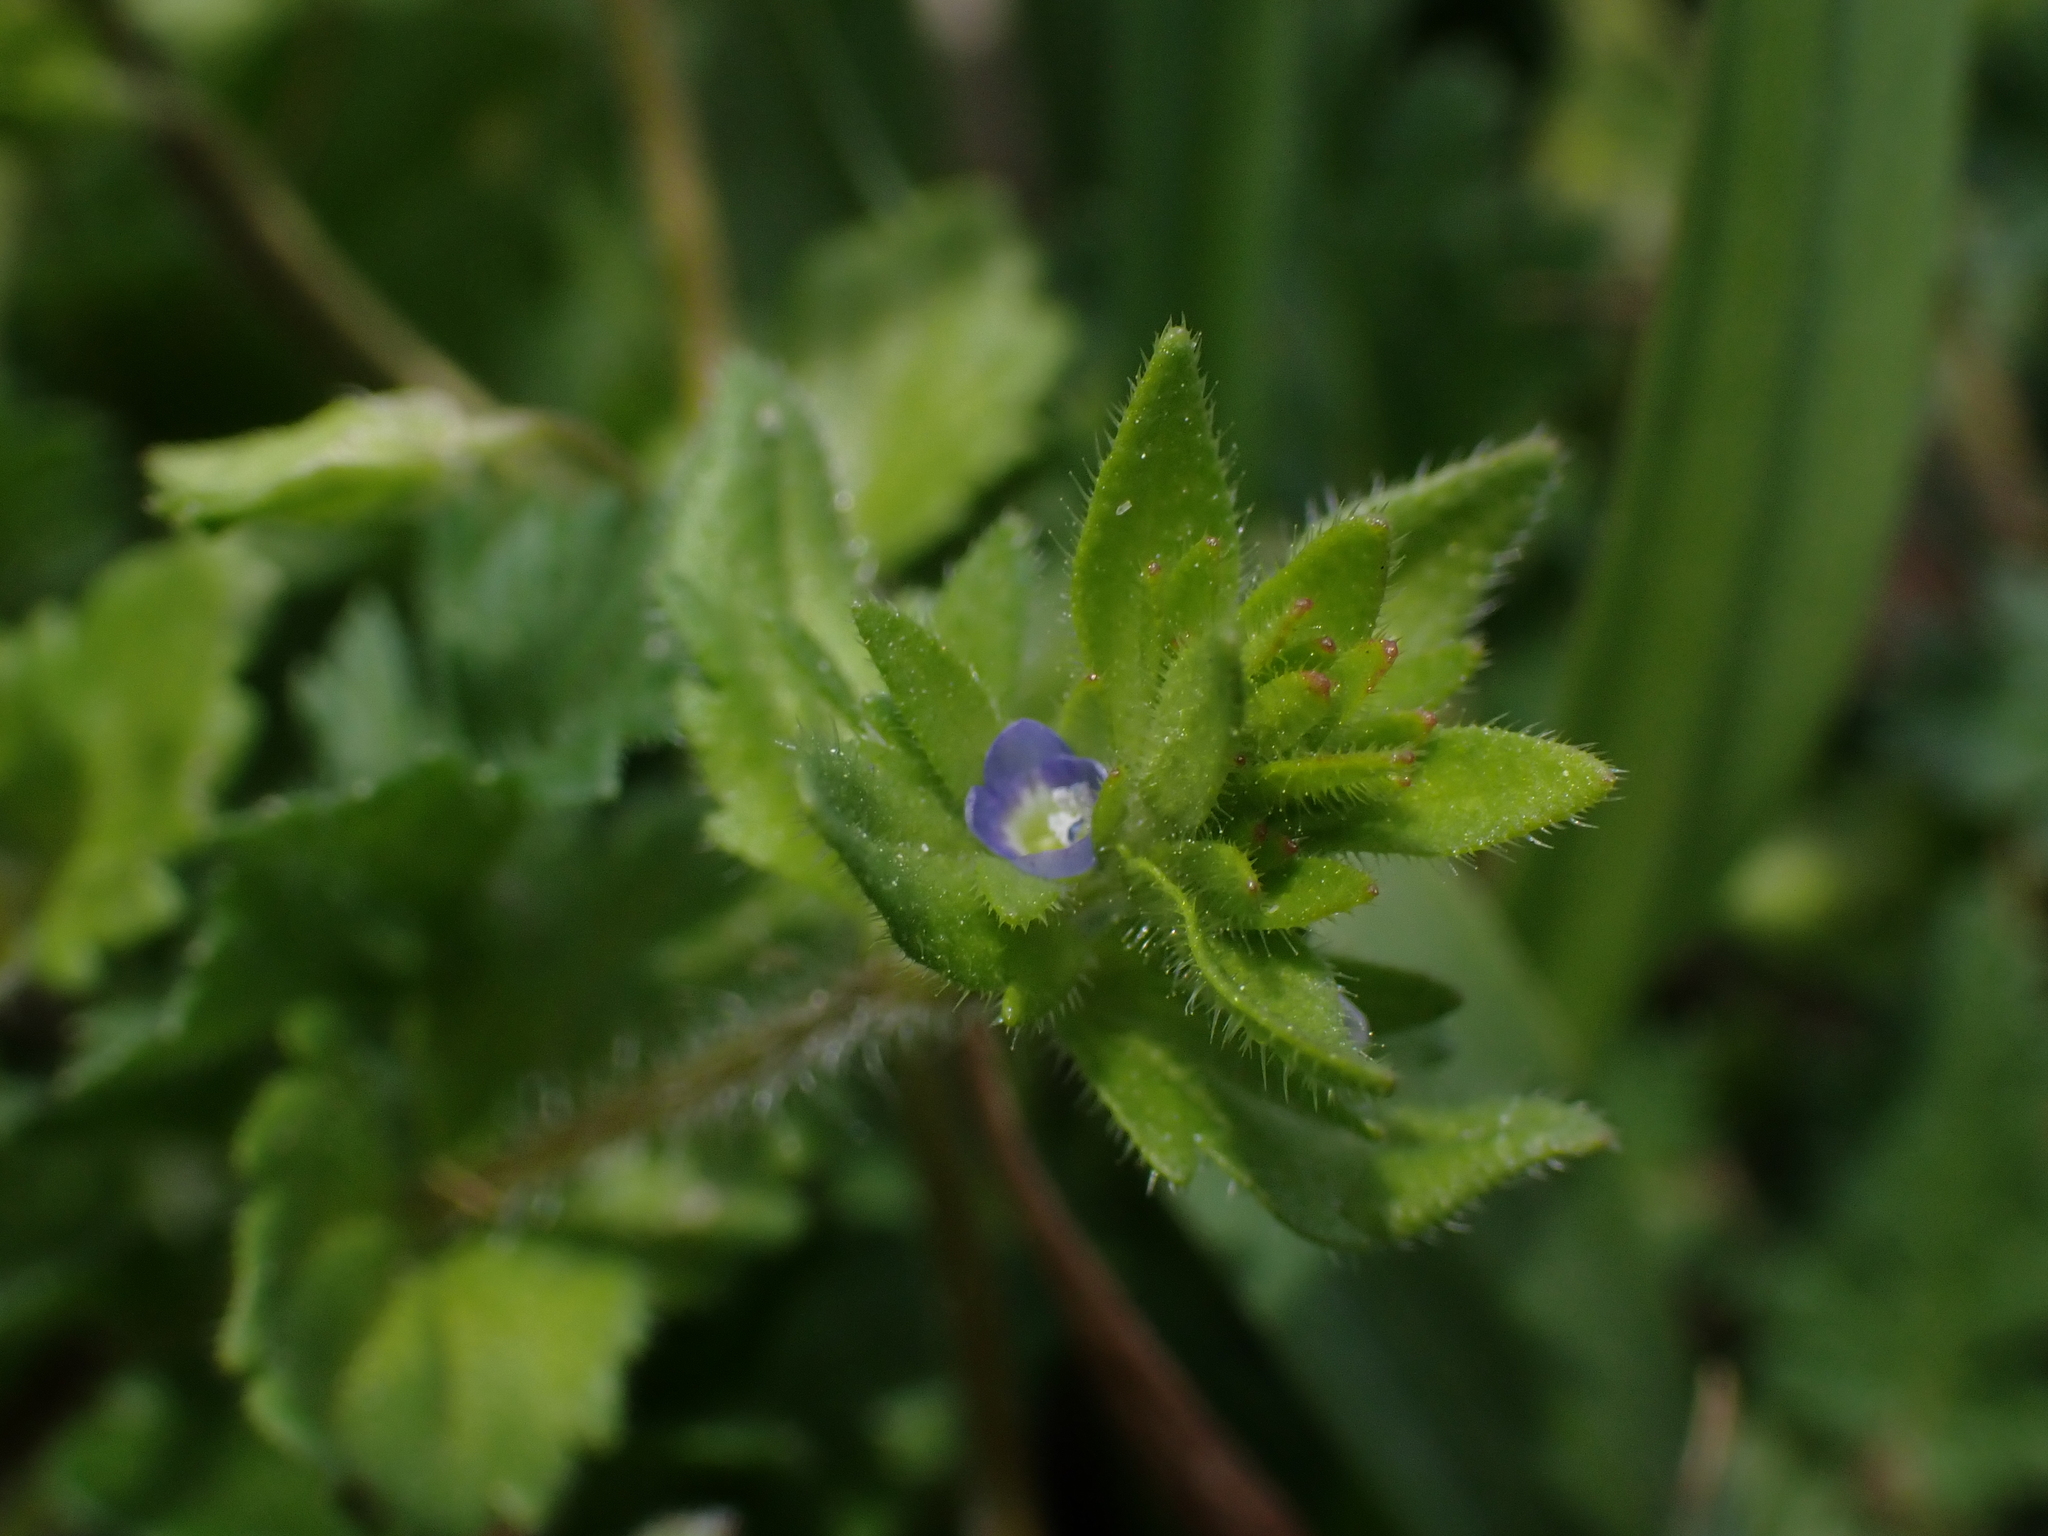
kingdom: Plantae
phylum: Tracheophyta
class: Magnoliopsida
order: Lamiales
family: Plantaginaceae
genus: Veronica
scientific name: Veronica arvensis
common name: Corn speedwell
